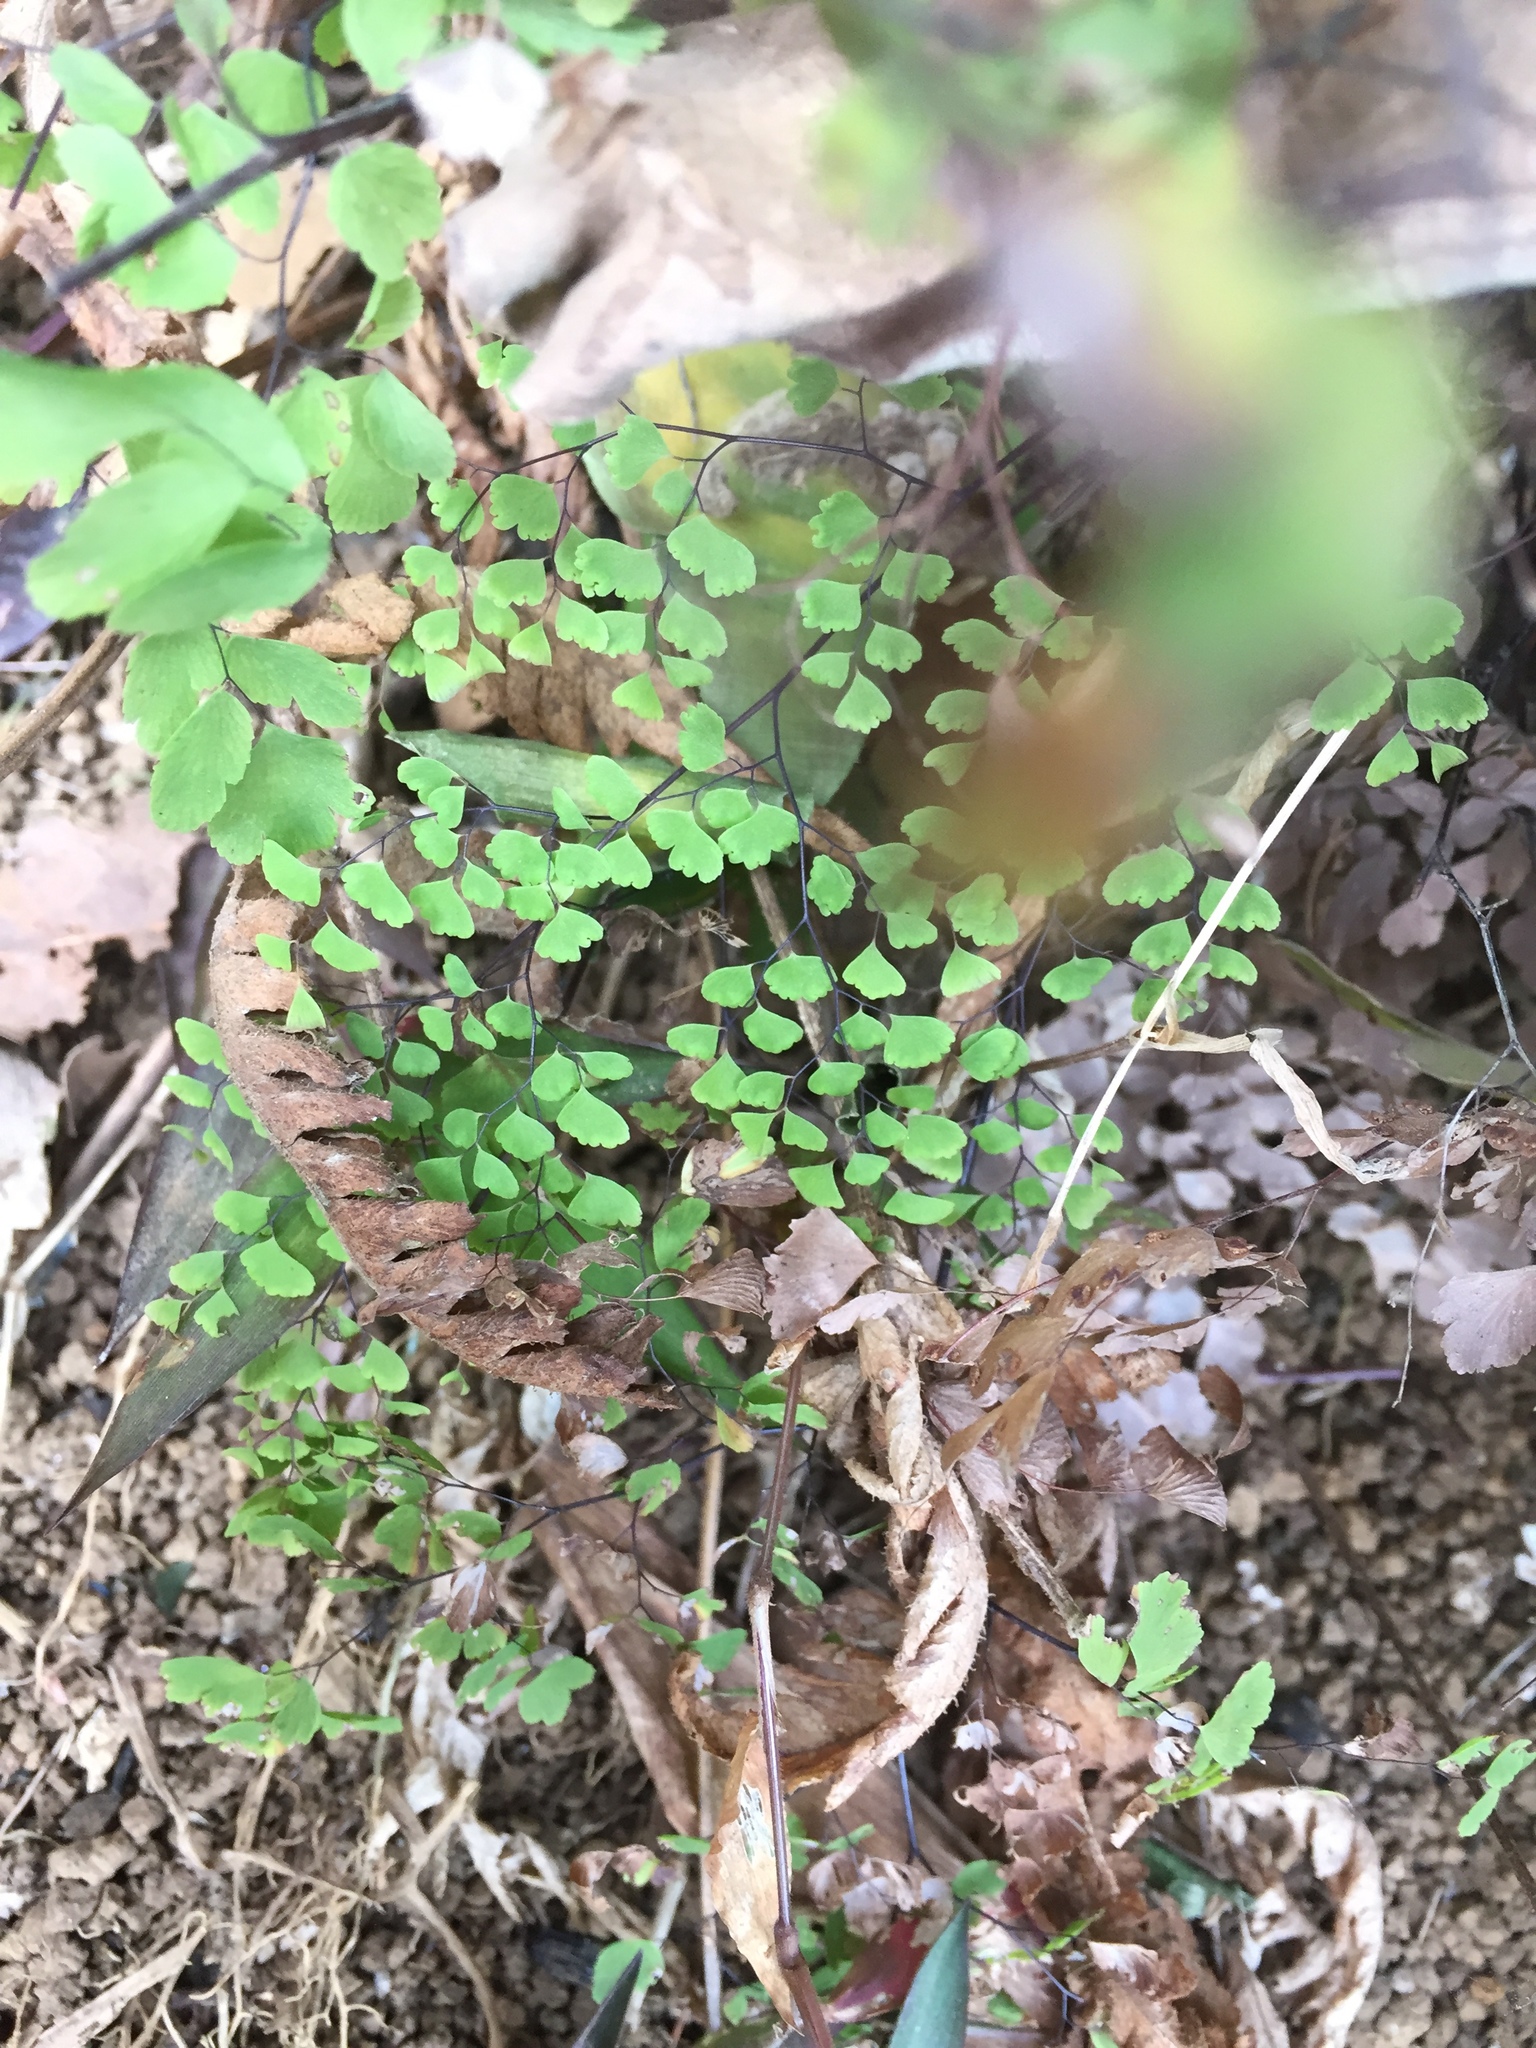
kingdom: Plantae
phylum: Tracheophyta
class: Polypodiopsida
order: Polypodiales
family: Pteridaceae
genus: Adiantum
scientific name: Adiantum capillus-veneris
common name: Maidenhair fern
